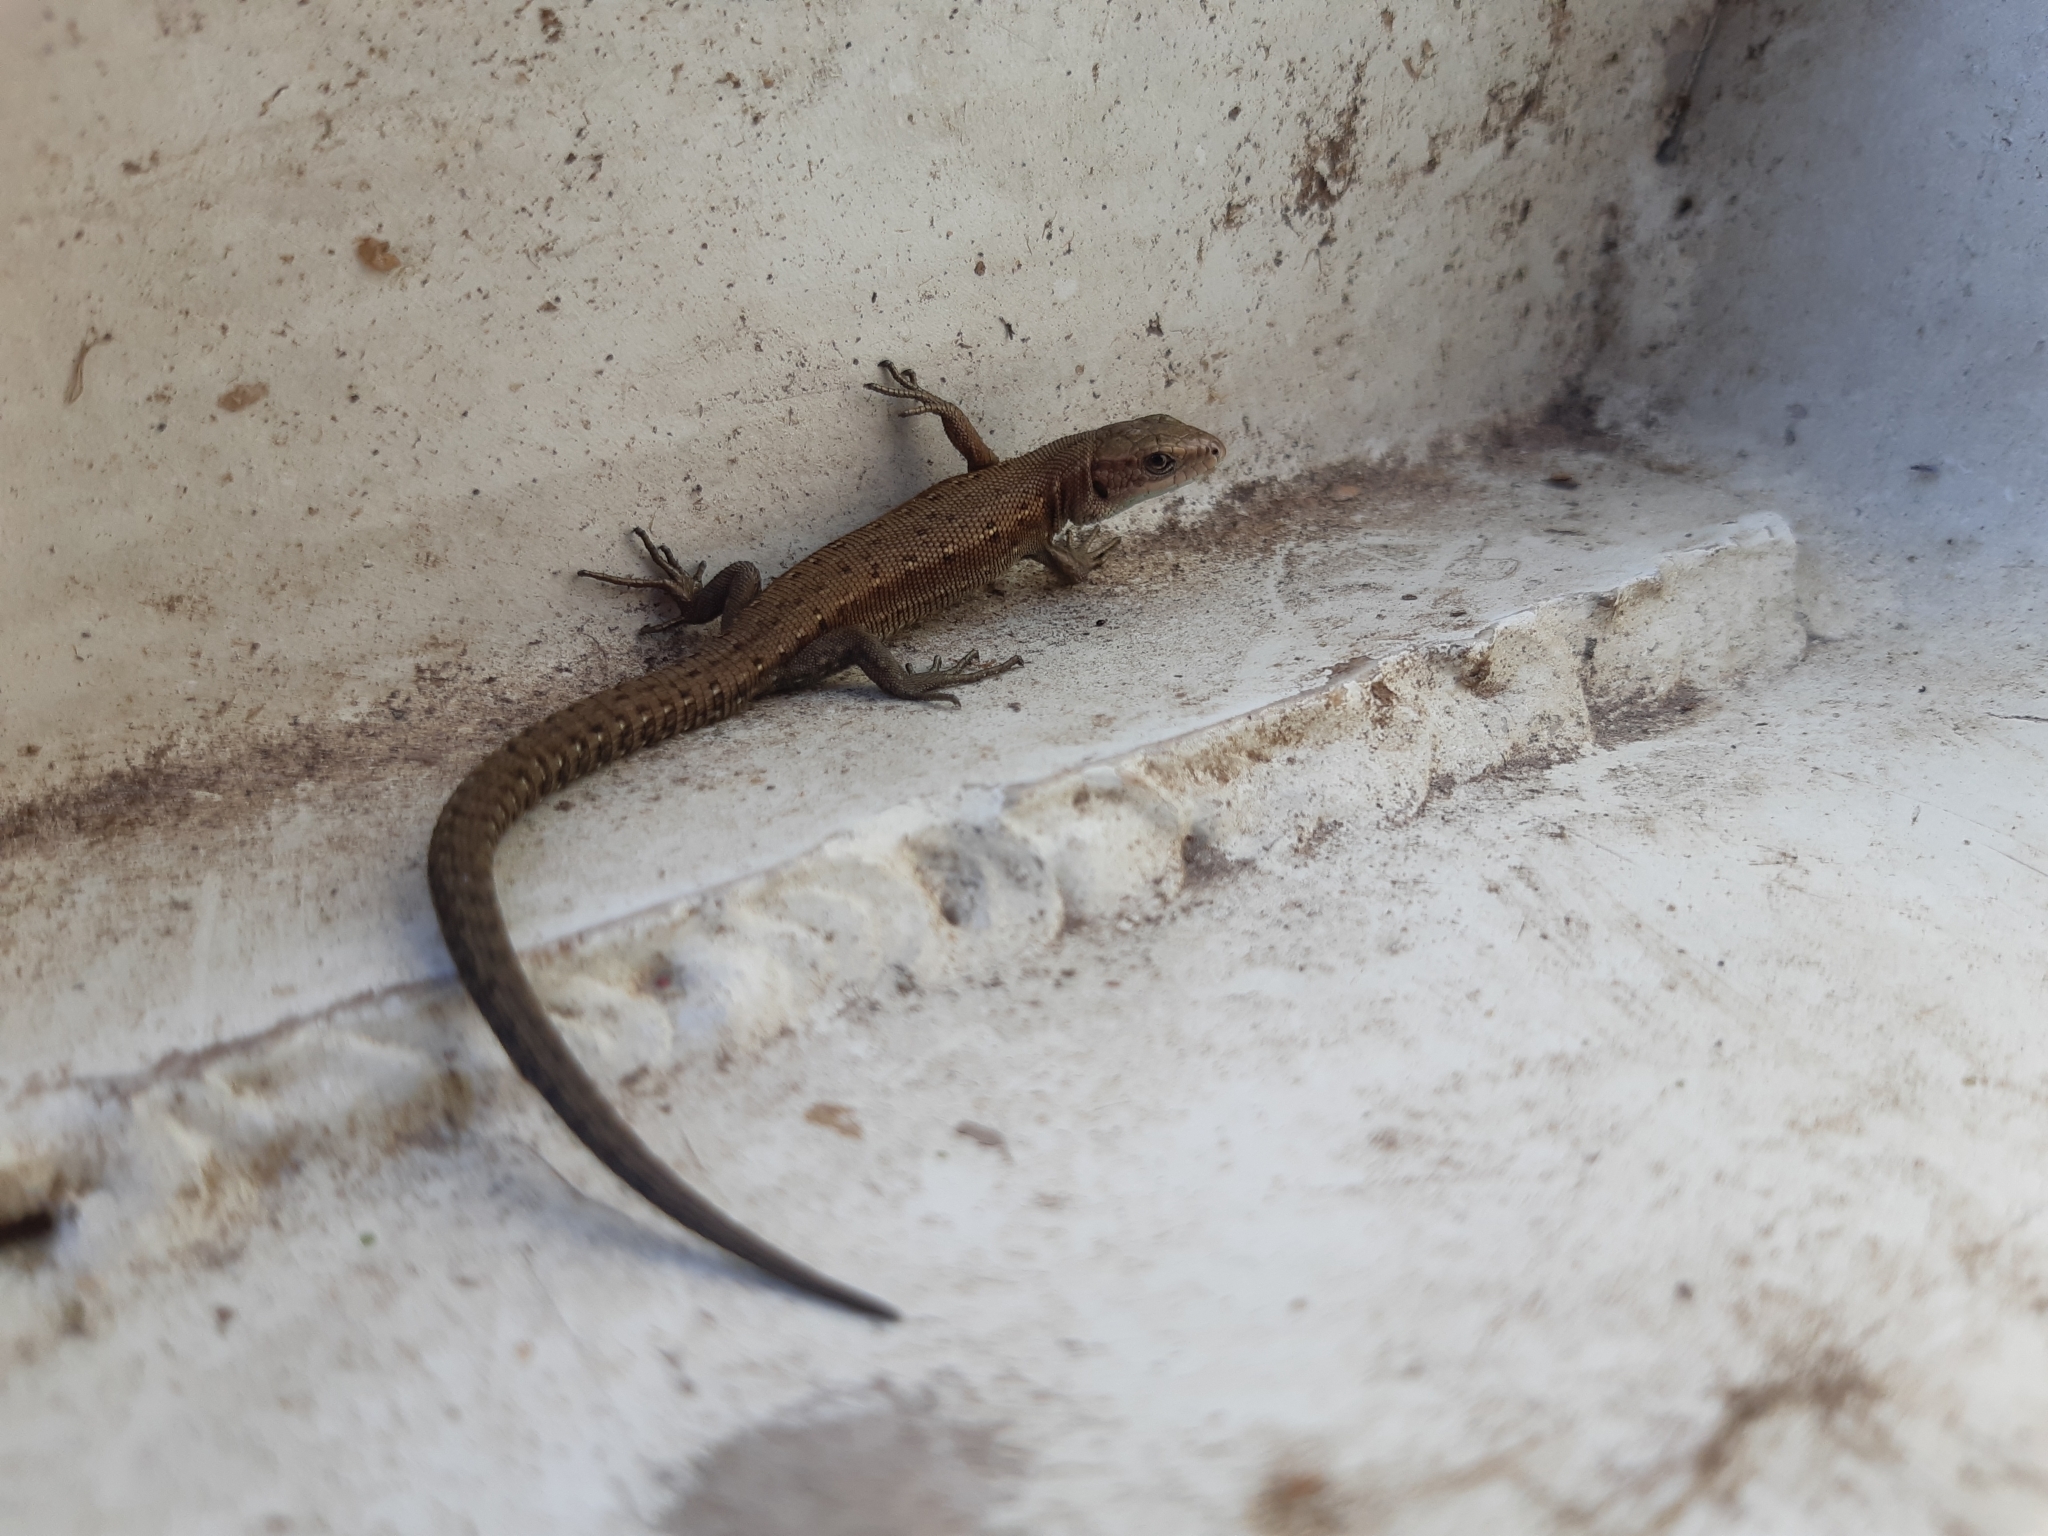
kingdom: Animalia
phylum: Chordata
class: Squamata
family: Lacertidae
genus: Zootoca
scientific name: Zootoca vivipara
